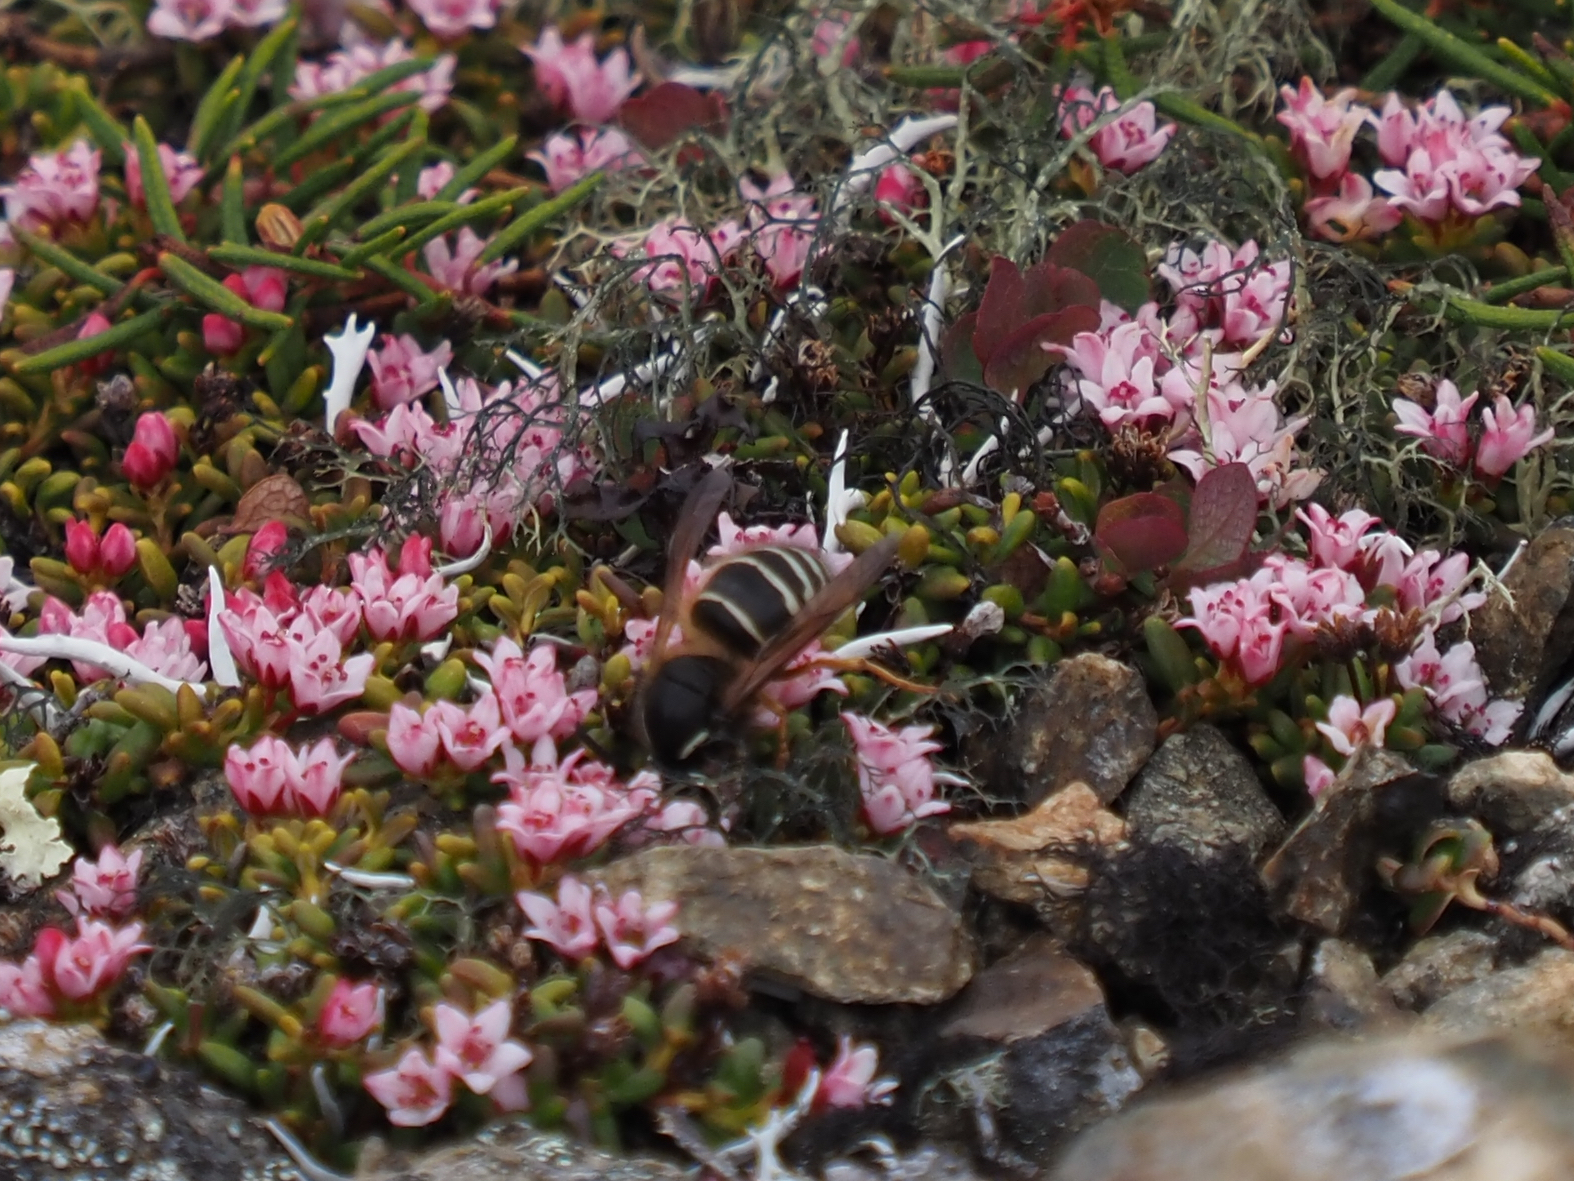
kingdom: Animalia
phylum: Arthropoda
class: Insecta
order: Hymenoptera
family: Vespidae
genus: Dolichovespula
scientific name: Dolichovespula norwegica
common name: Norwegian wasp
